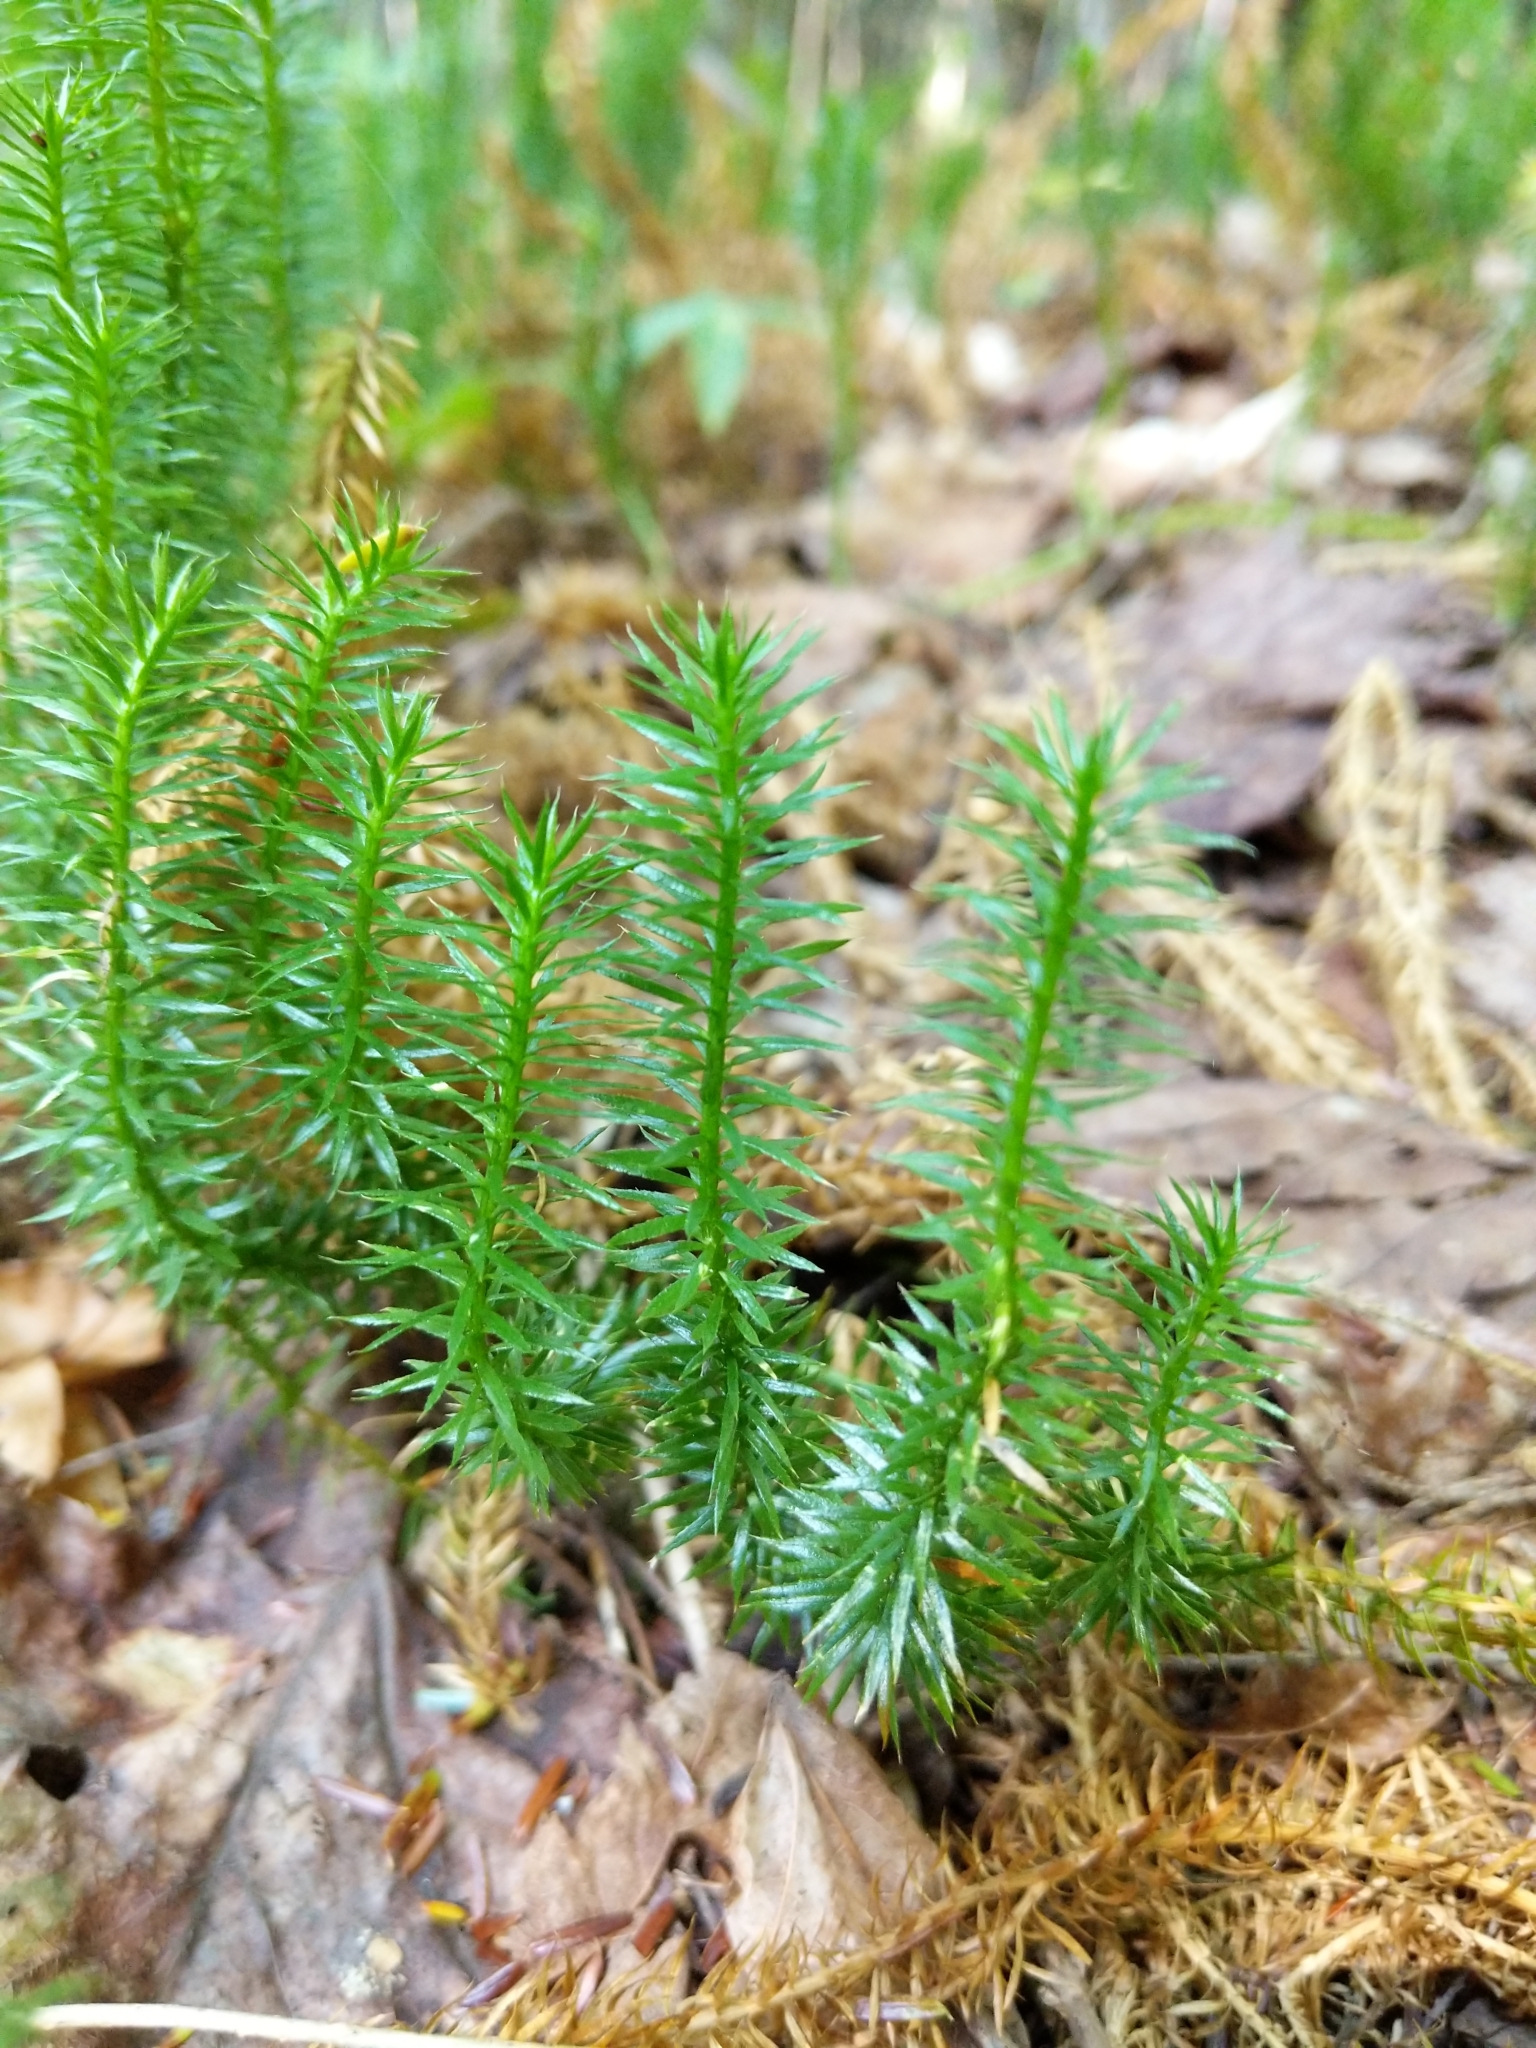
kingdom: Plantae
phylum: Tracheophyta
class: Lycopodiopsida
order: Lycopodiales
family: Lycopodiaceae
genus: Spinulum
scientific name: Spinulum annotinum
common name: Interrupted club-moss
